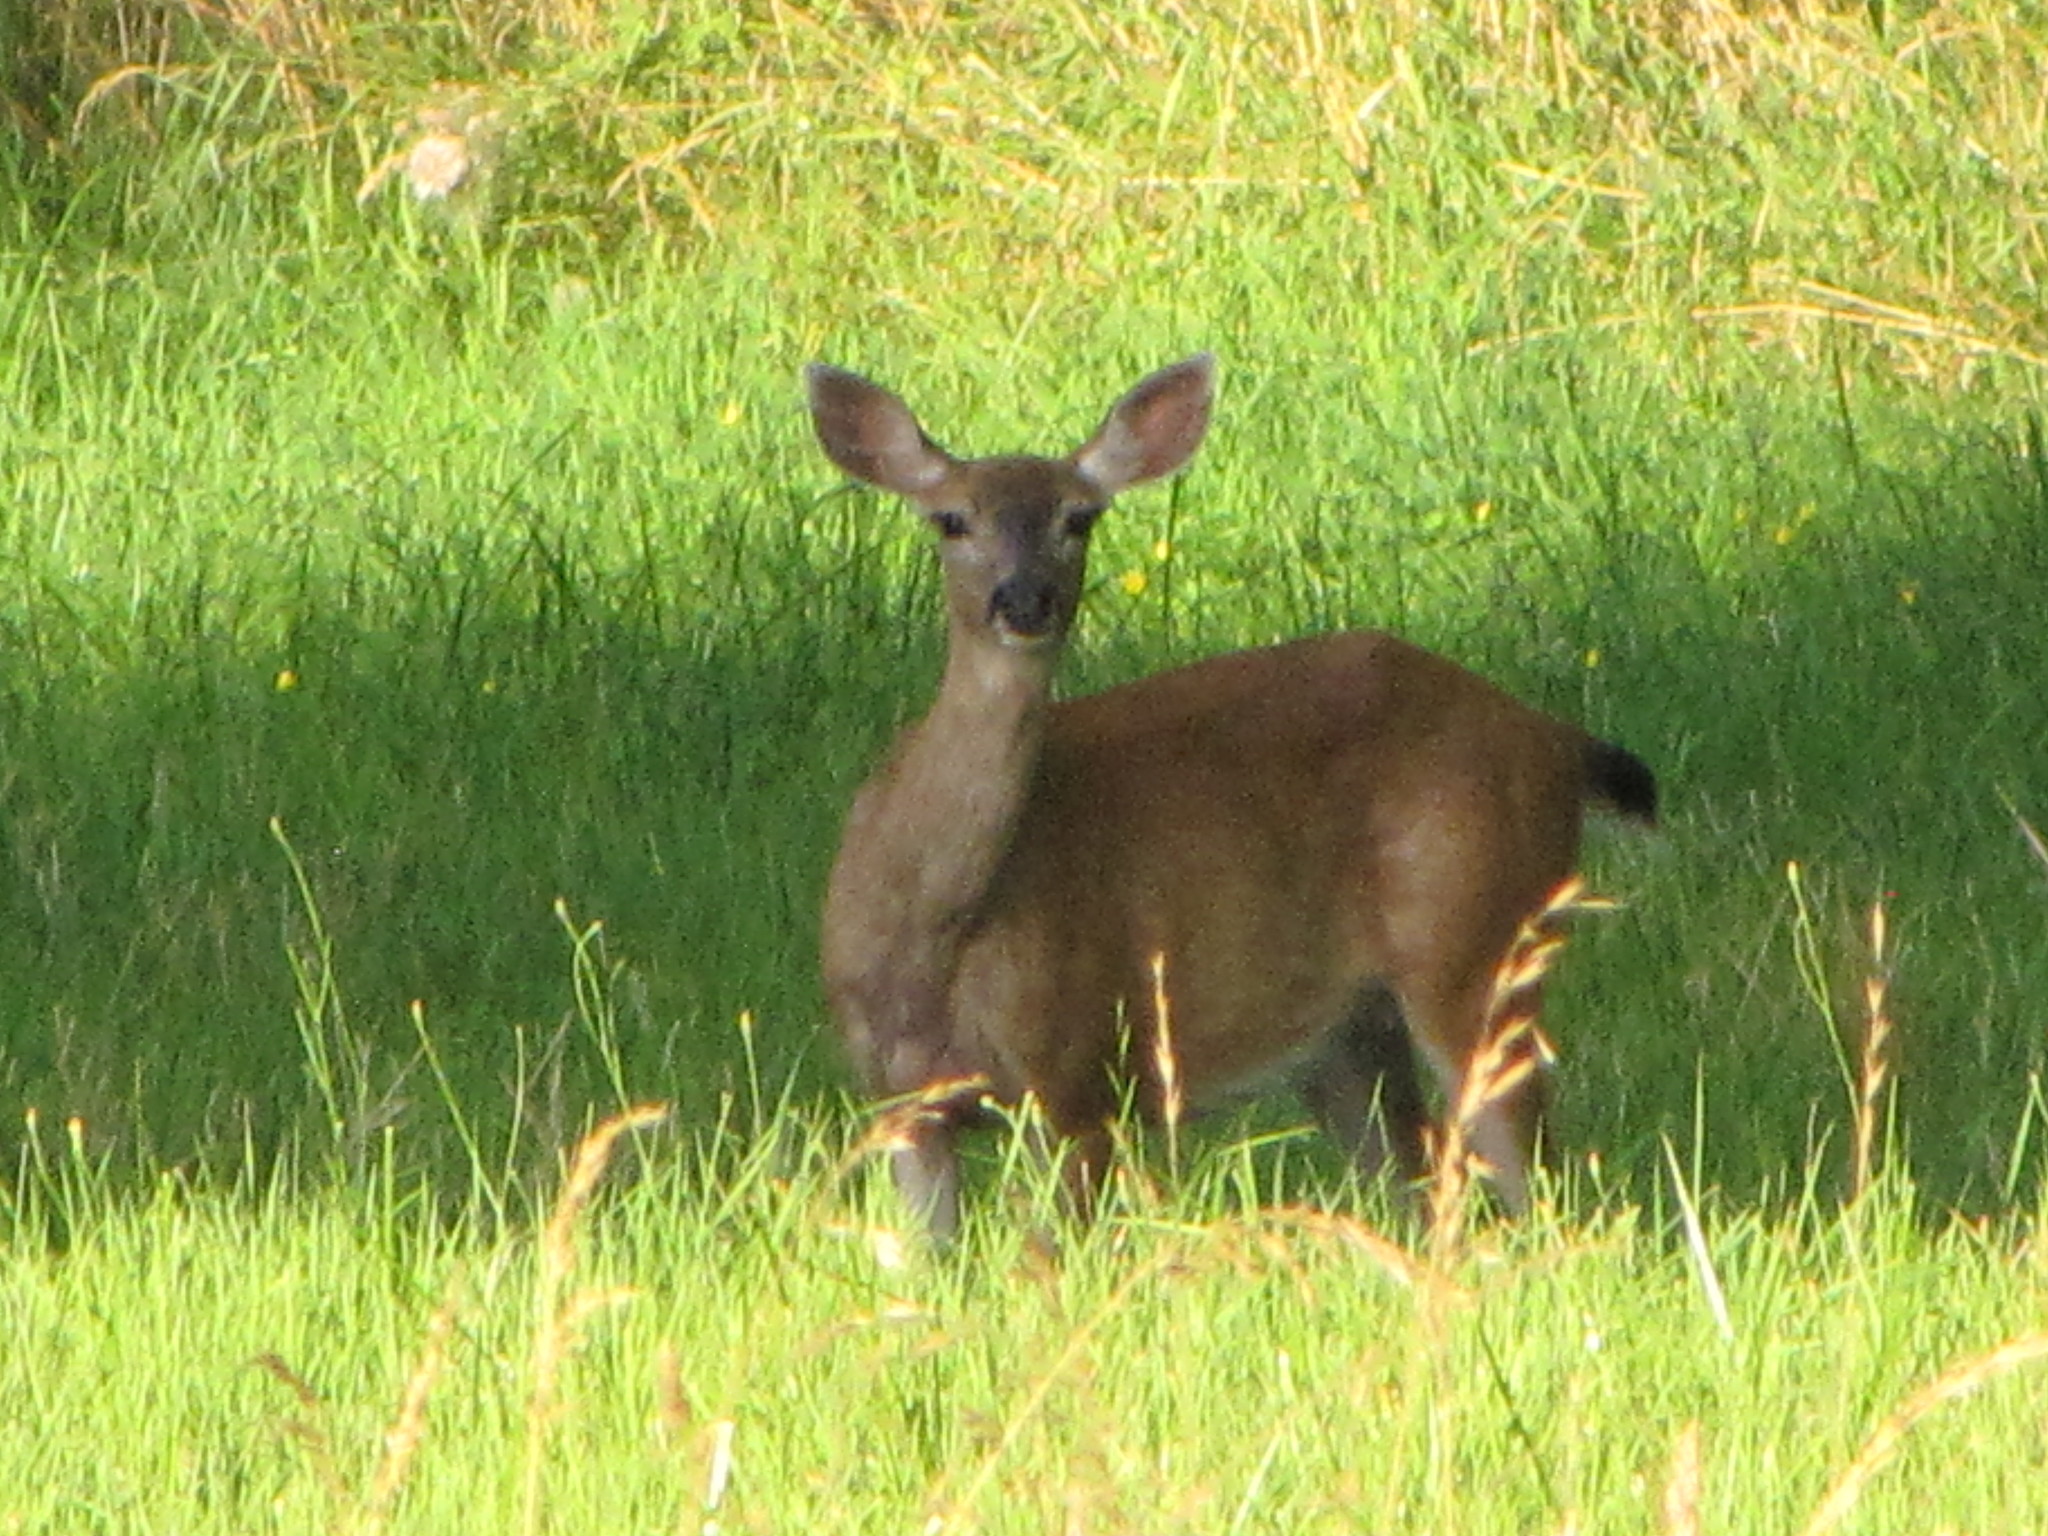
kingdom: Animalia
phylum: Chordata
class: Mammalia
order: Artiodactyla
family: Cervidae
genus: Odocoileus
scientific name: Odocoileus hemionus
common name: Mule deer
